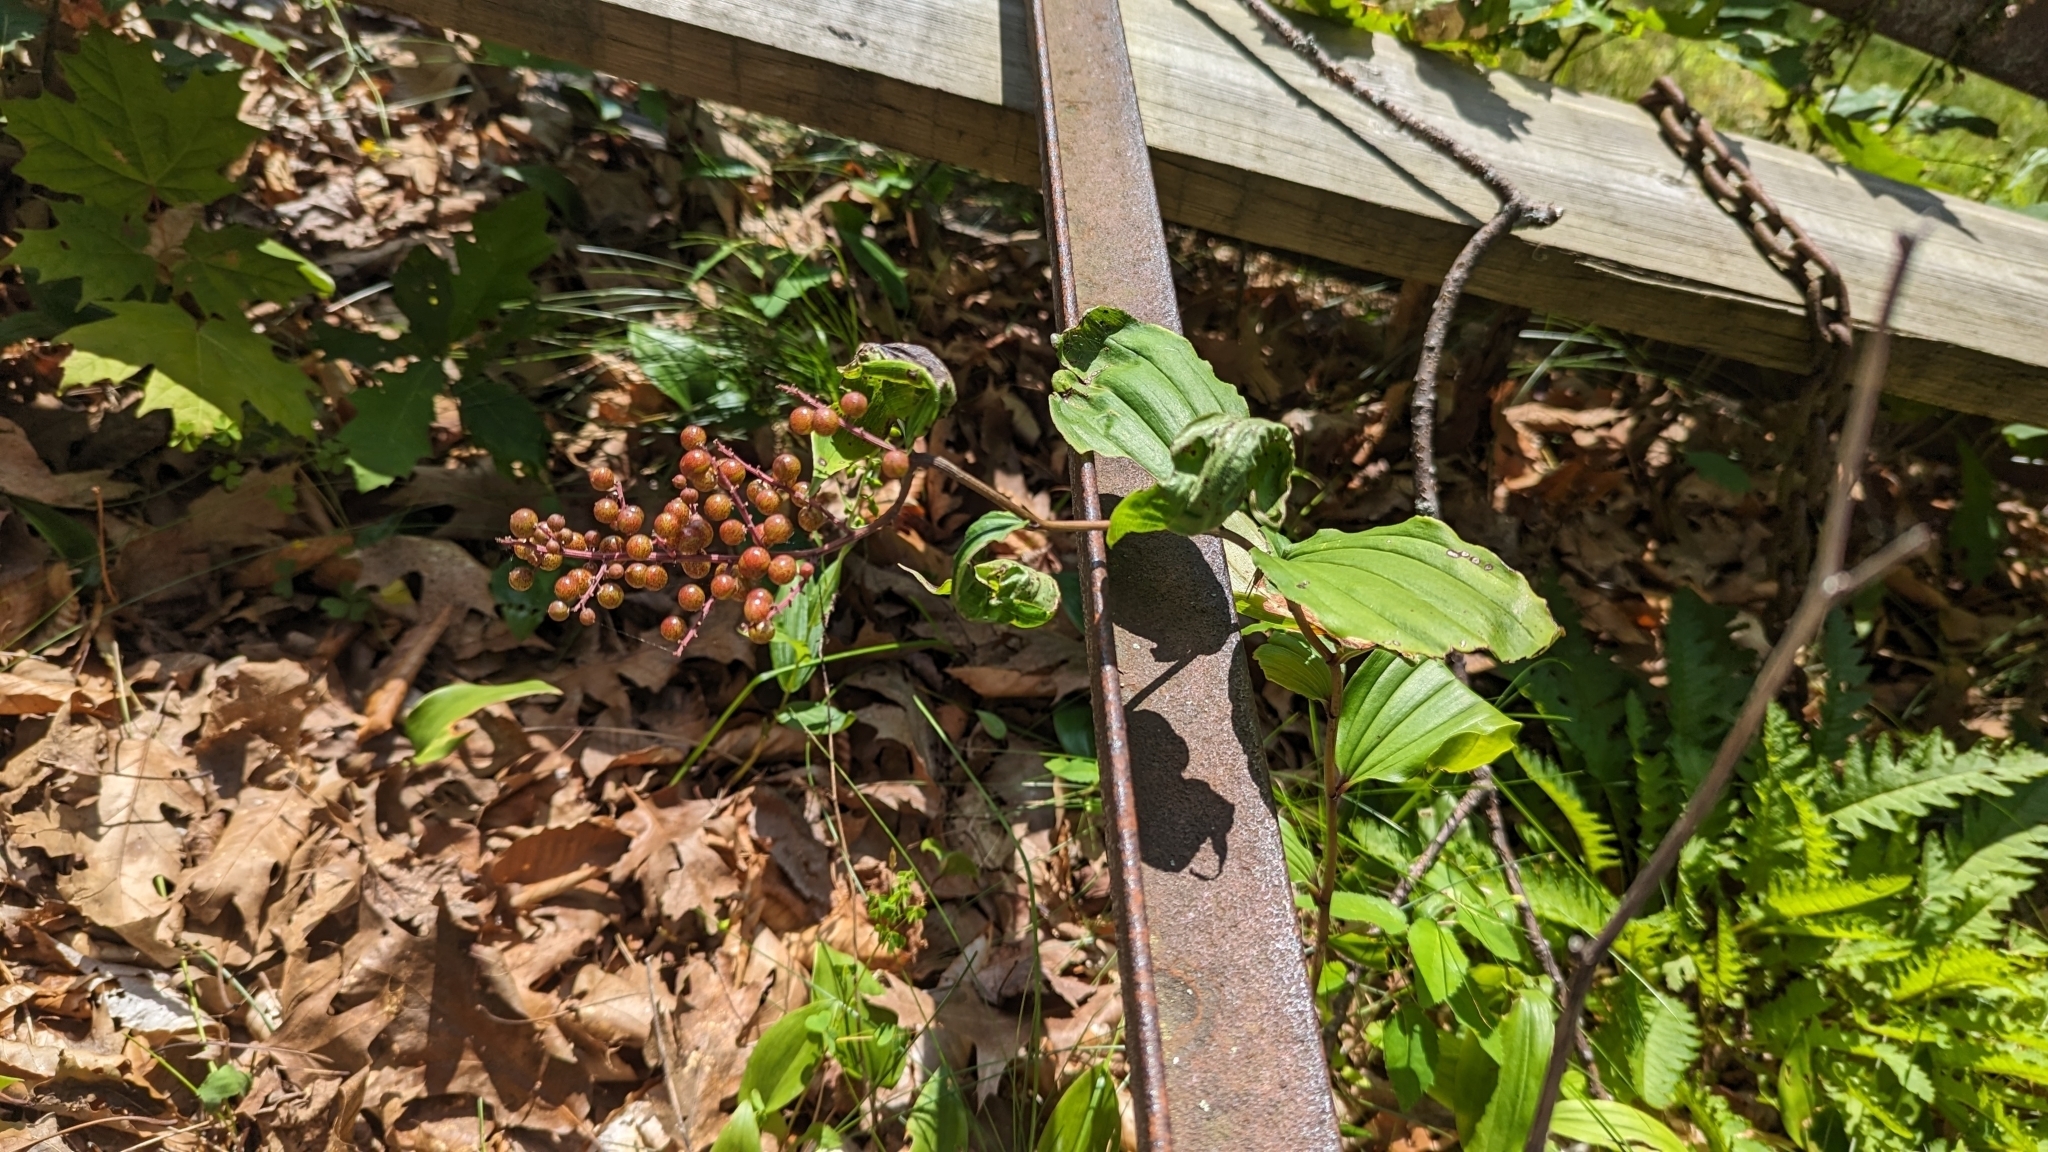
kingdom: Plantae
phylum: Tracheophyta
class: Liliopsida
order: Asparagales
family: Asparagaceae
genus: Maianthemum
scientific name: Maianthemum racemosum
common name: False spikenard
